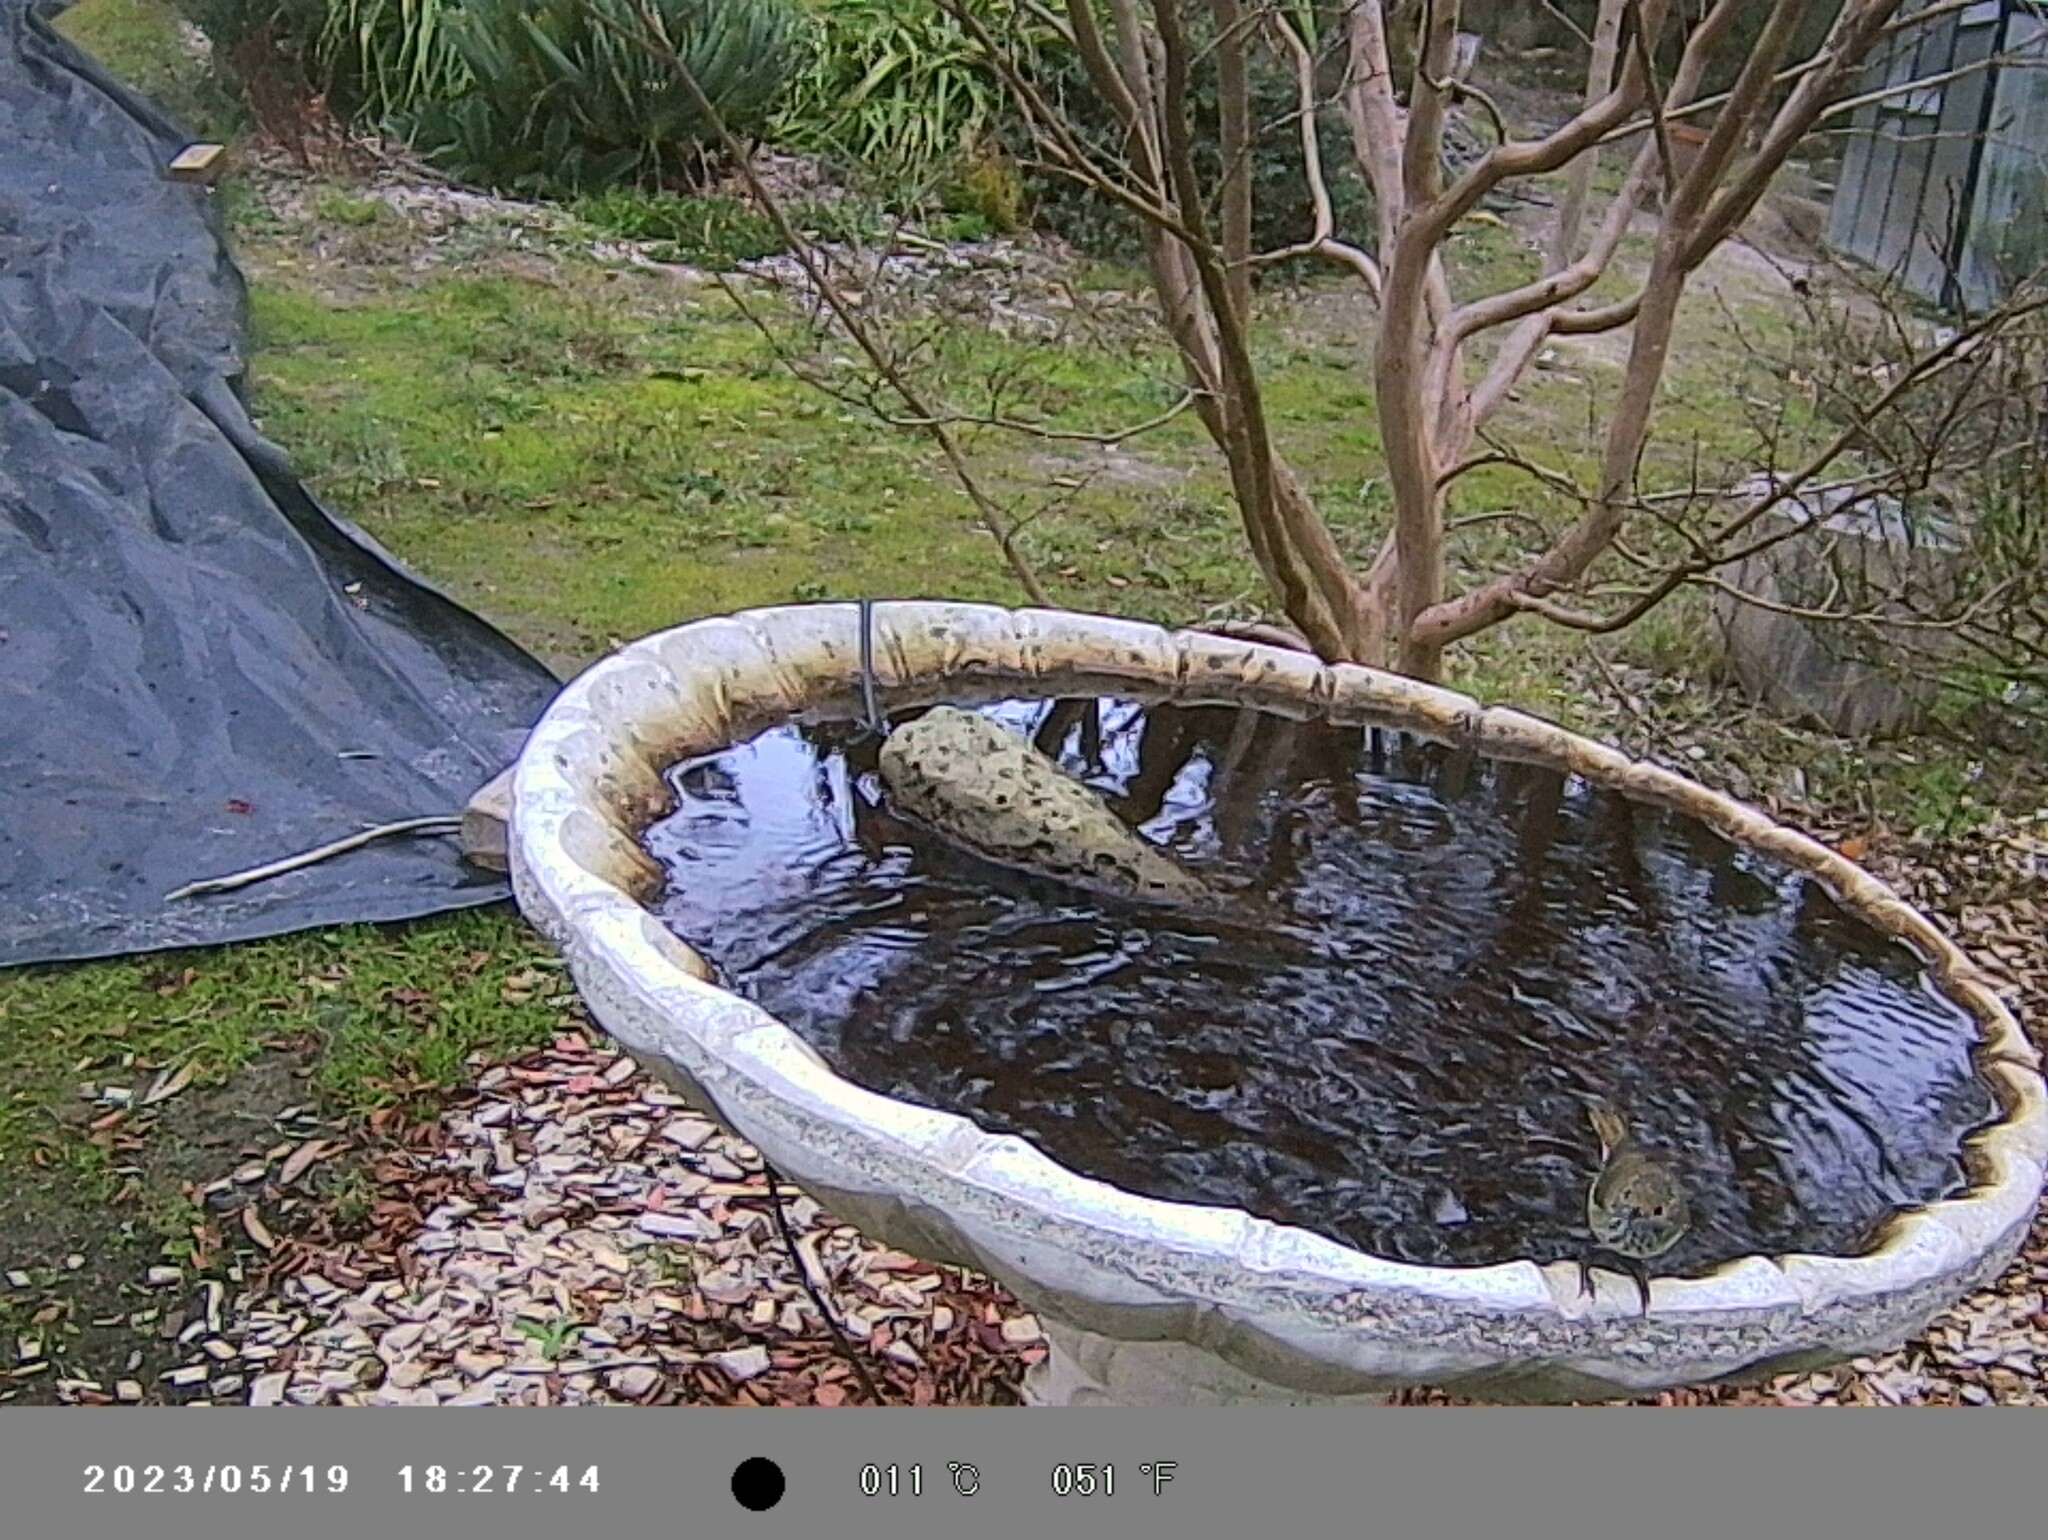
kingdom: Animalia
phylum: Chordata
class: Aves
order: Passeriformes
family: Acanthizidae
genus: Acanthiza
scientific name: Acanthiza pusilla
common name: Brown thornbill
